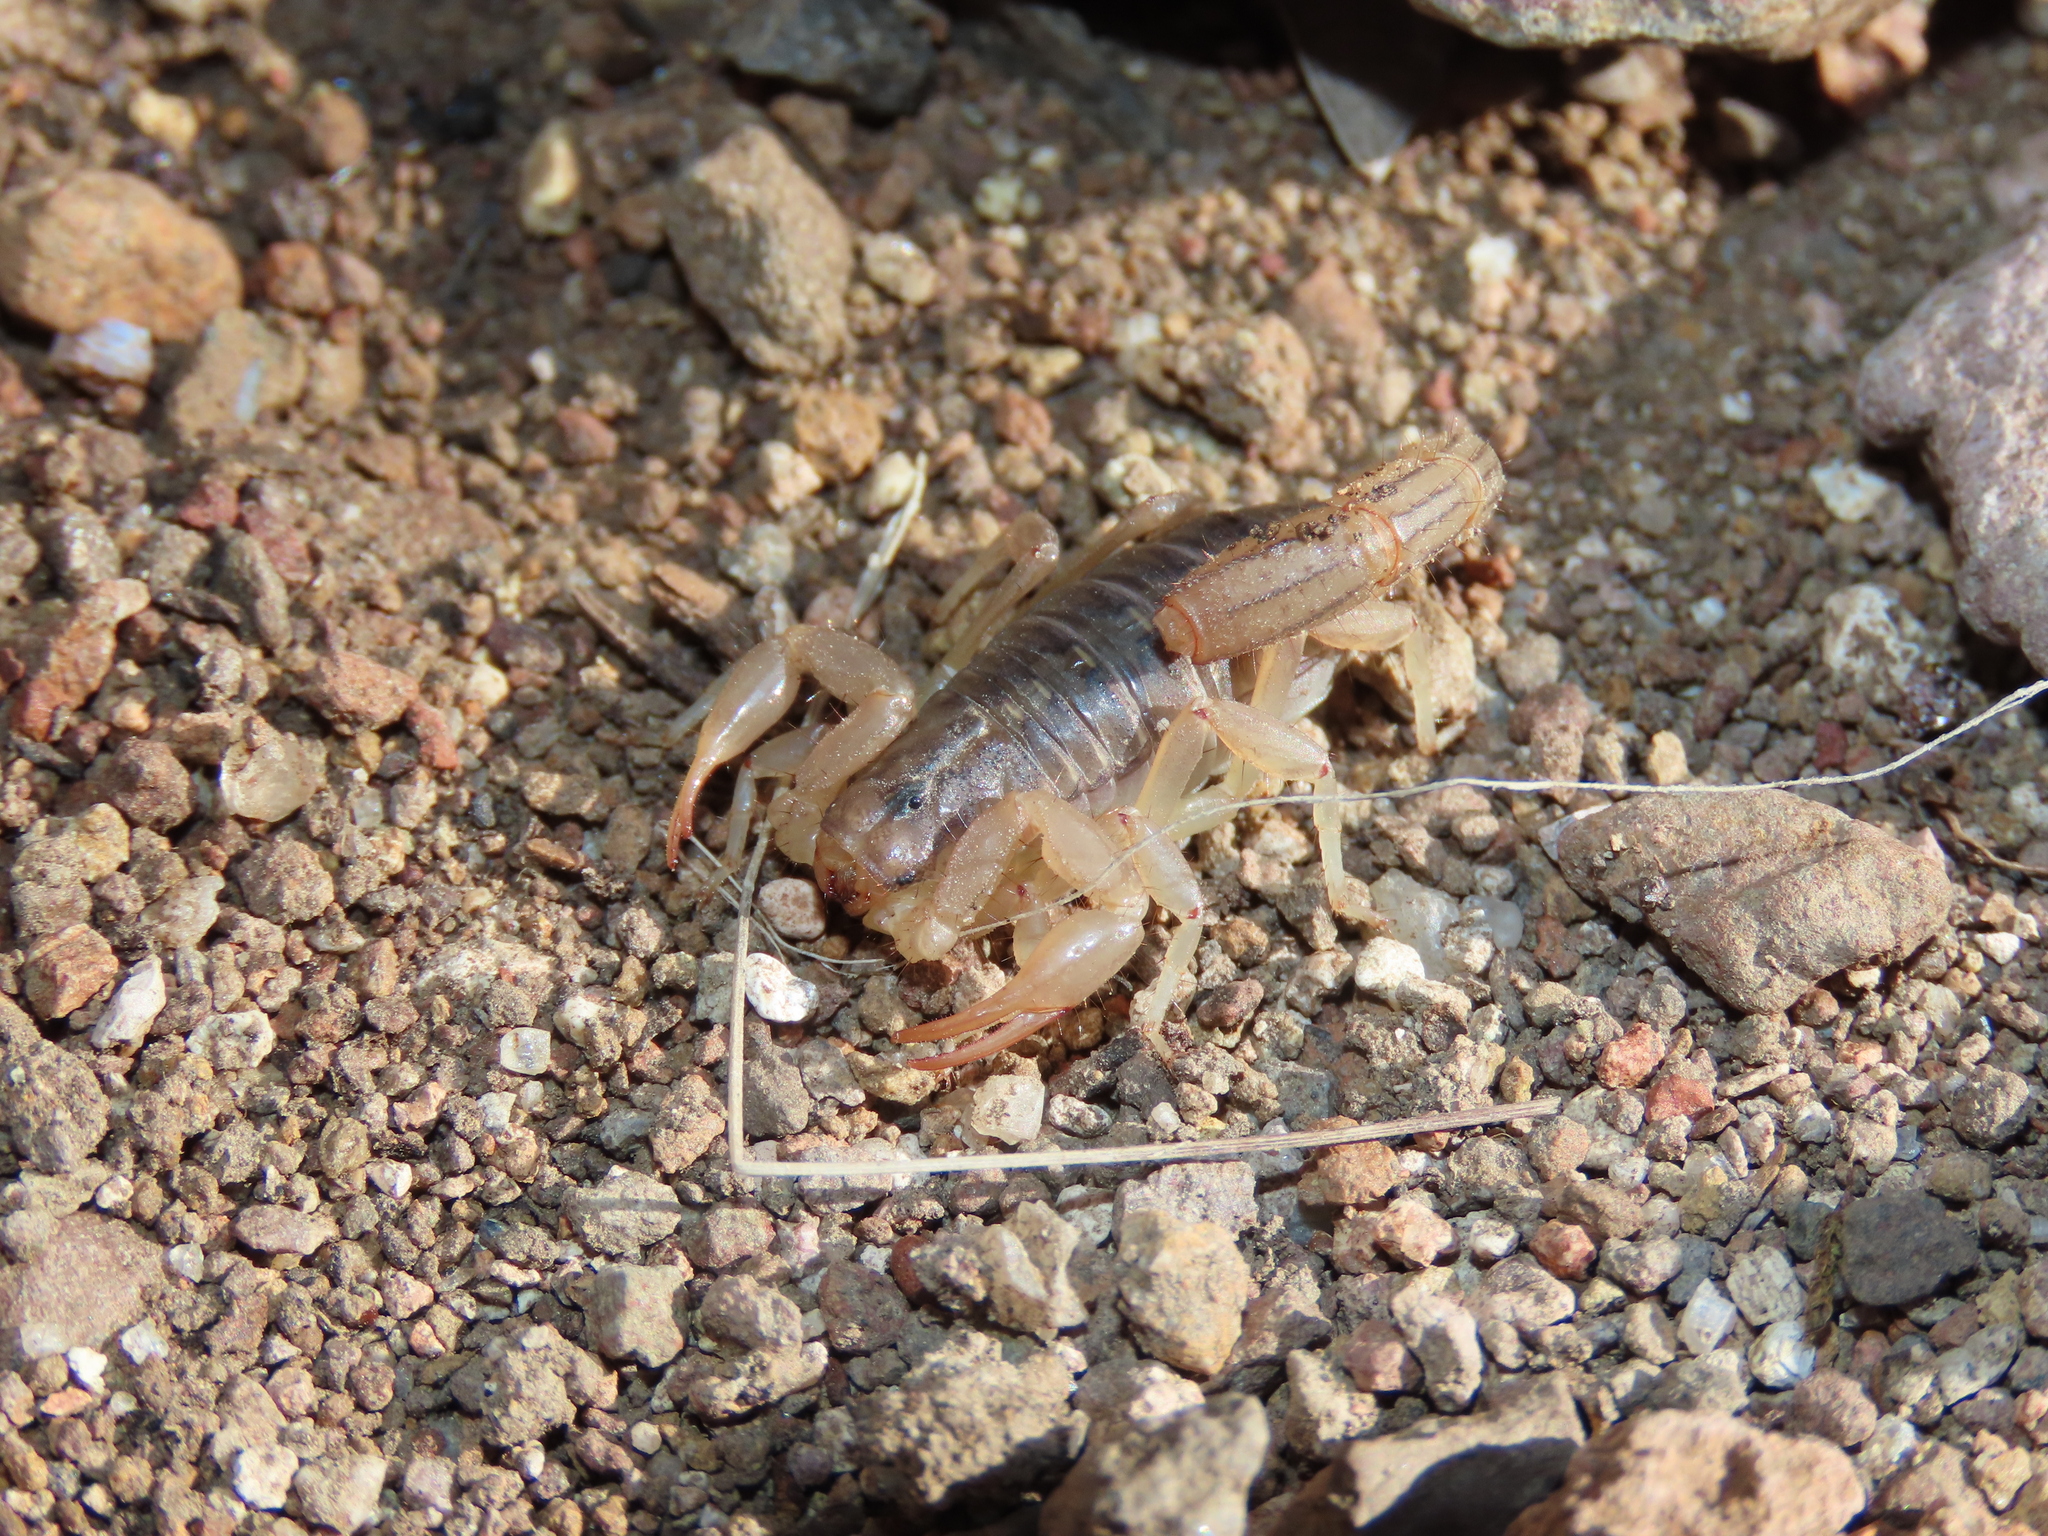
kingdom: Animalia
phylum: Arthropoda
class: Arachnida
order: Scorpiones
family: Vaejovidae
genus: Paravaejovis
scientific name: Paravaejovis spinigerus
